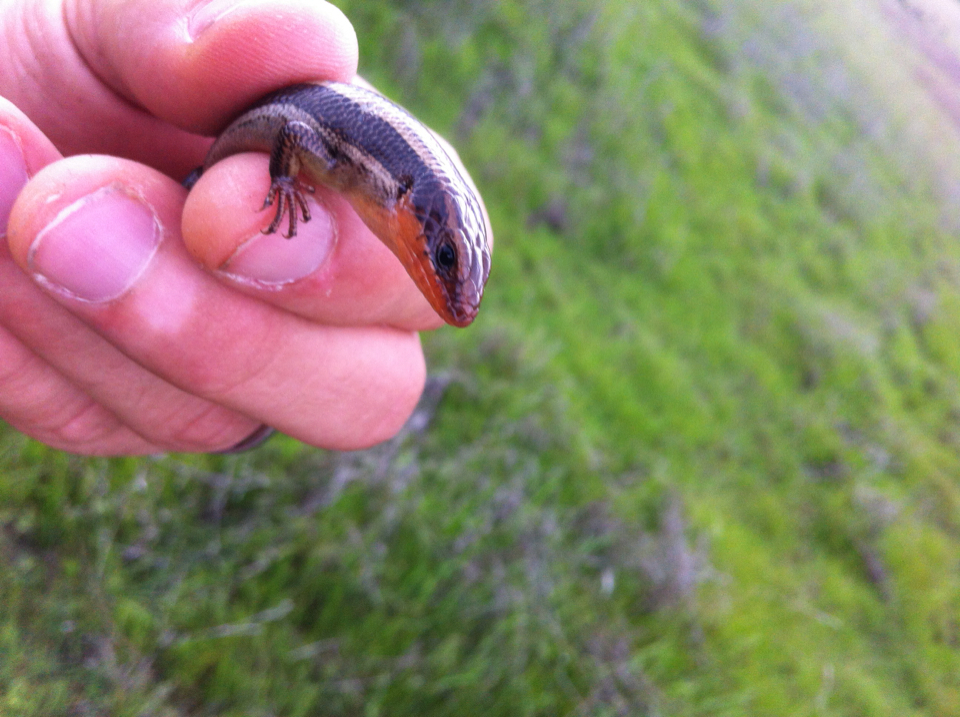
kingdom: Animalia
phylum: Chordata
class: Squamata
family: Scincidae
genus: Plestiodon
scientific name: Plestiodon skiltonianus
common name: Coronado island skink [interparietalis]
